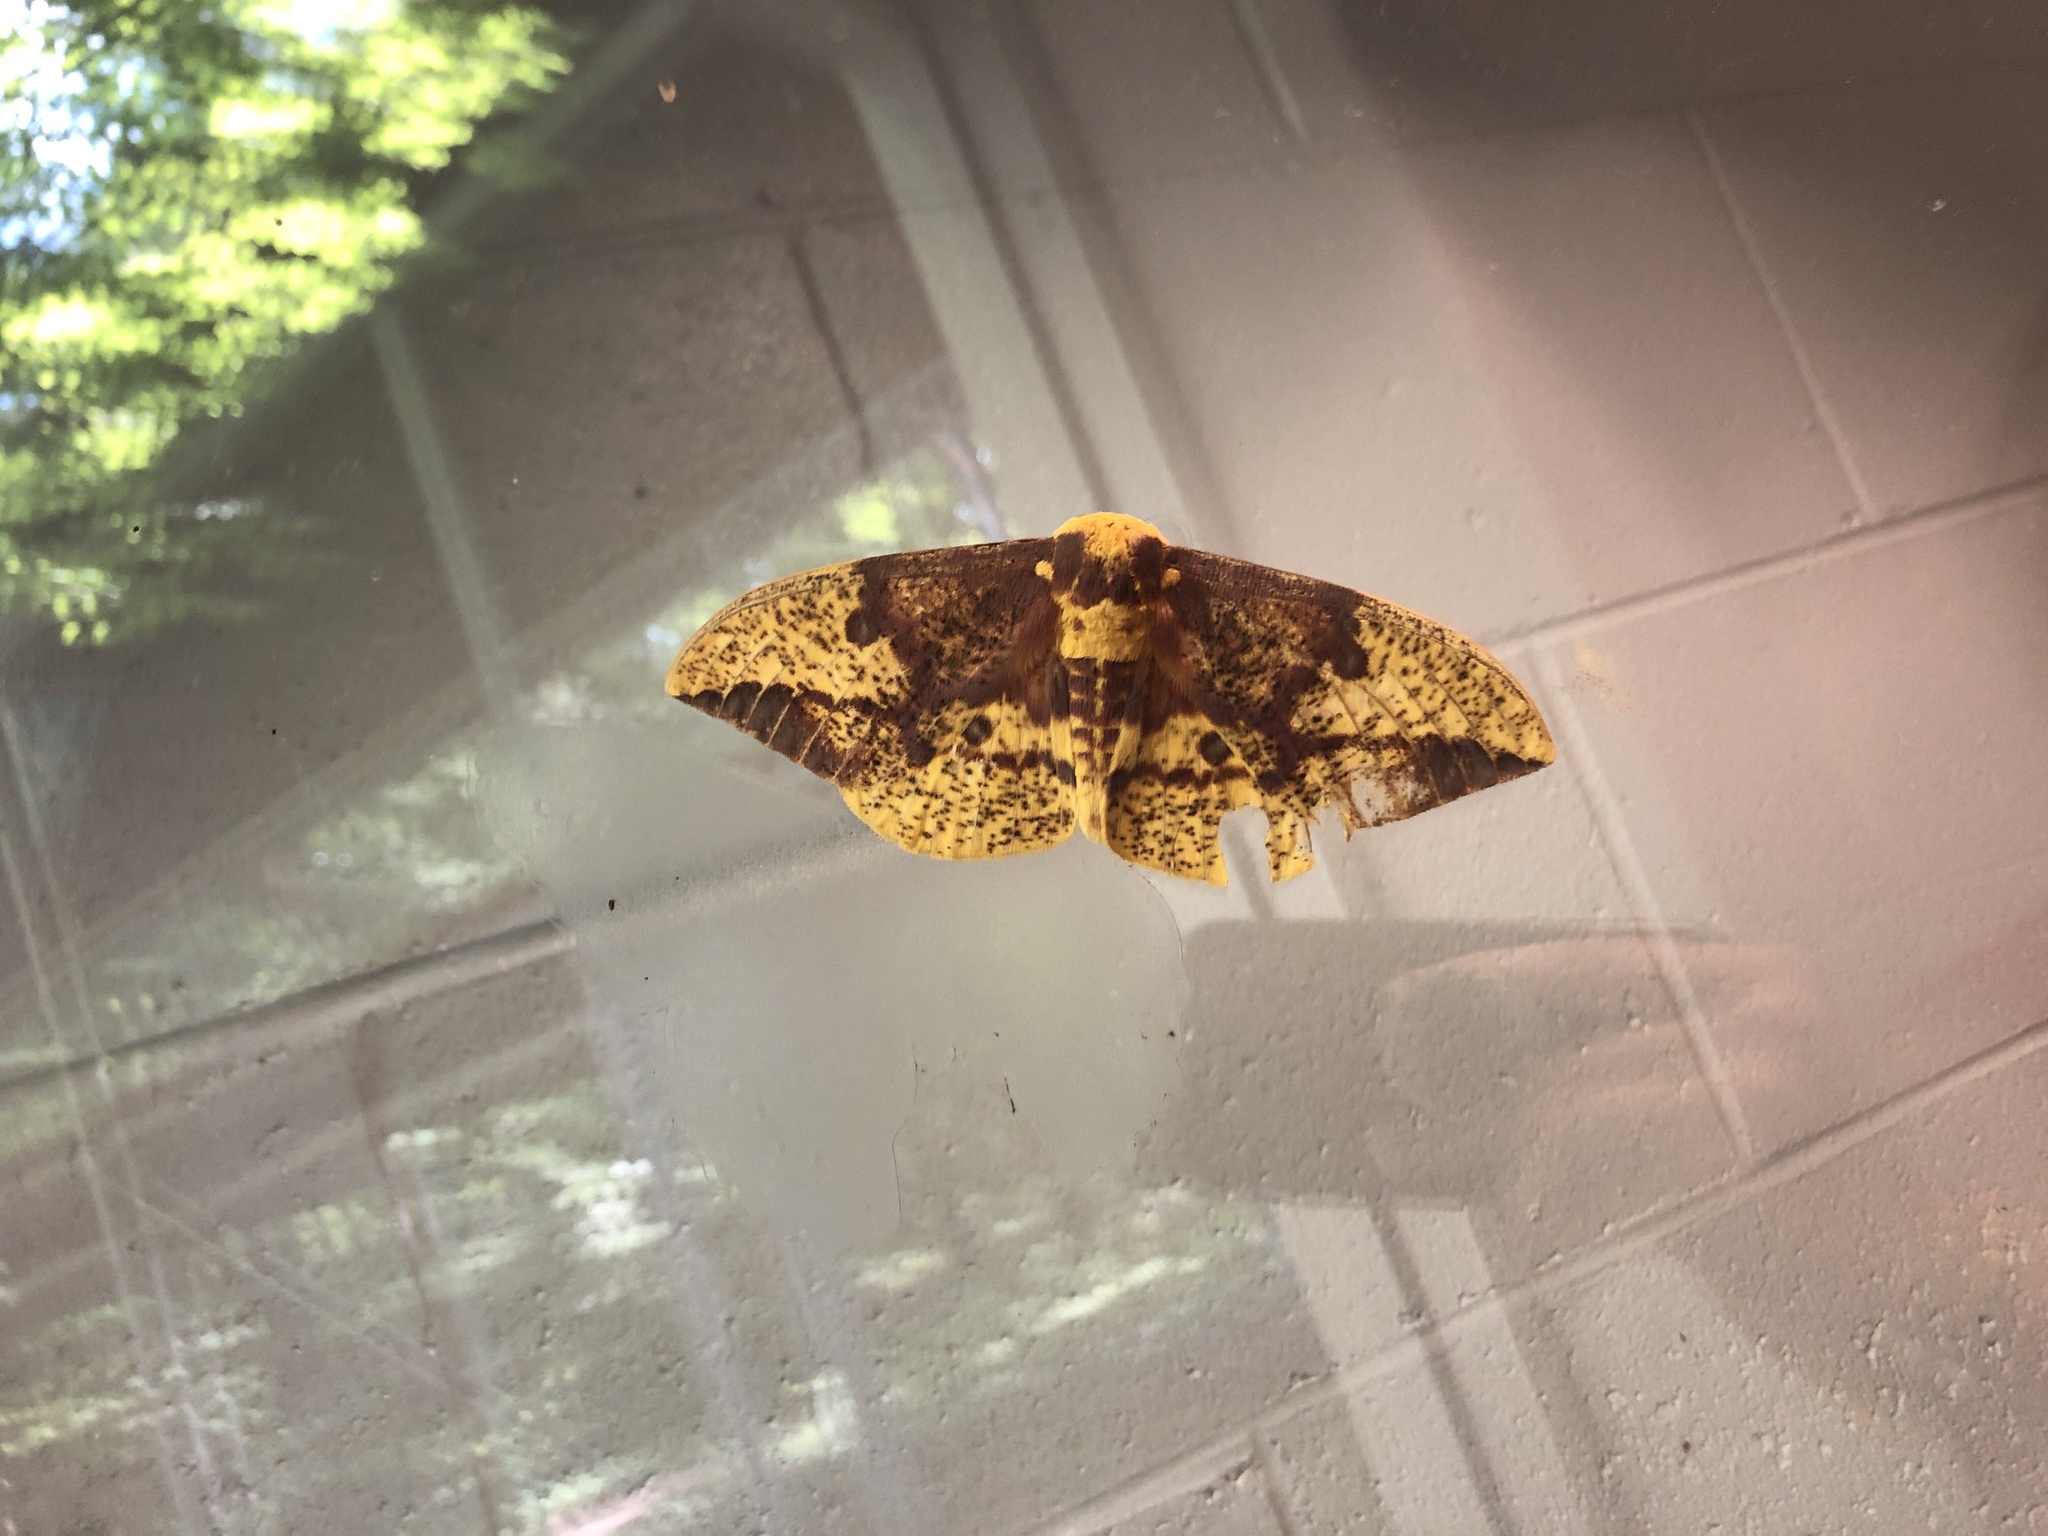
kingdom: Animalia
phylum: Arthropoda
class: Insecta
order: Lepidoptera
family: Saturniidae
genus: Eacles
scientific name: Eacles imperialis
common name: Imperial moth
